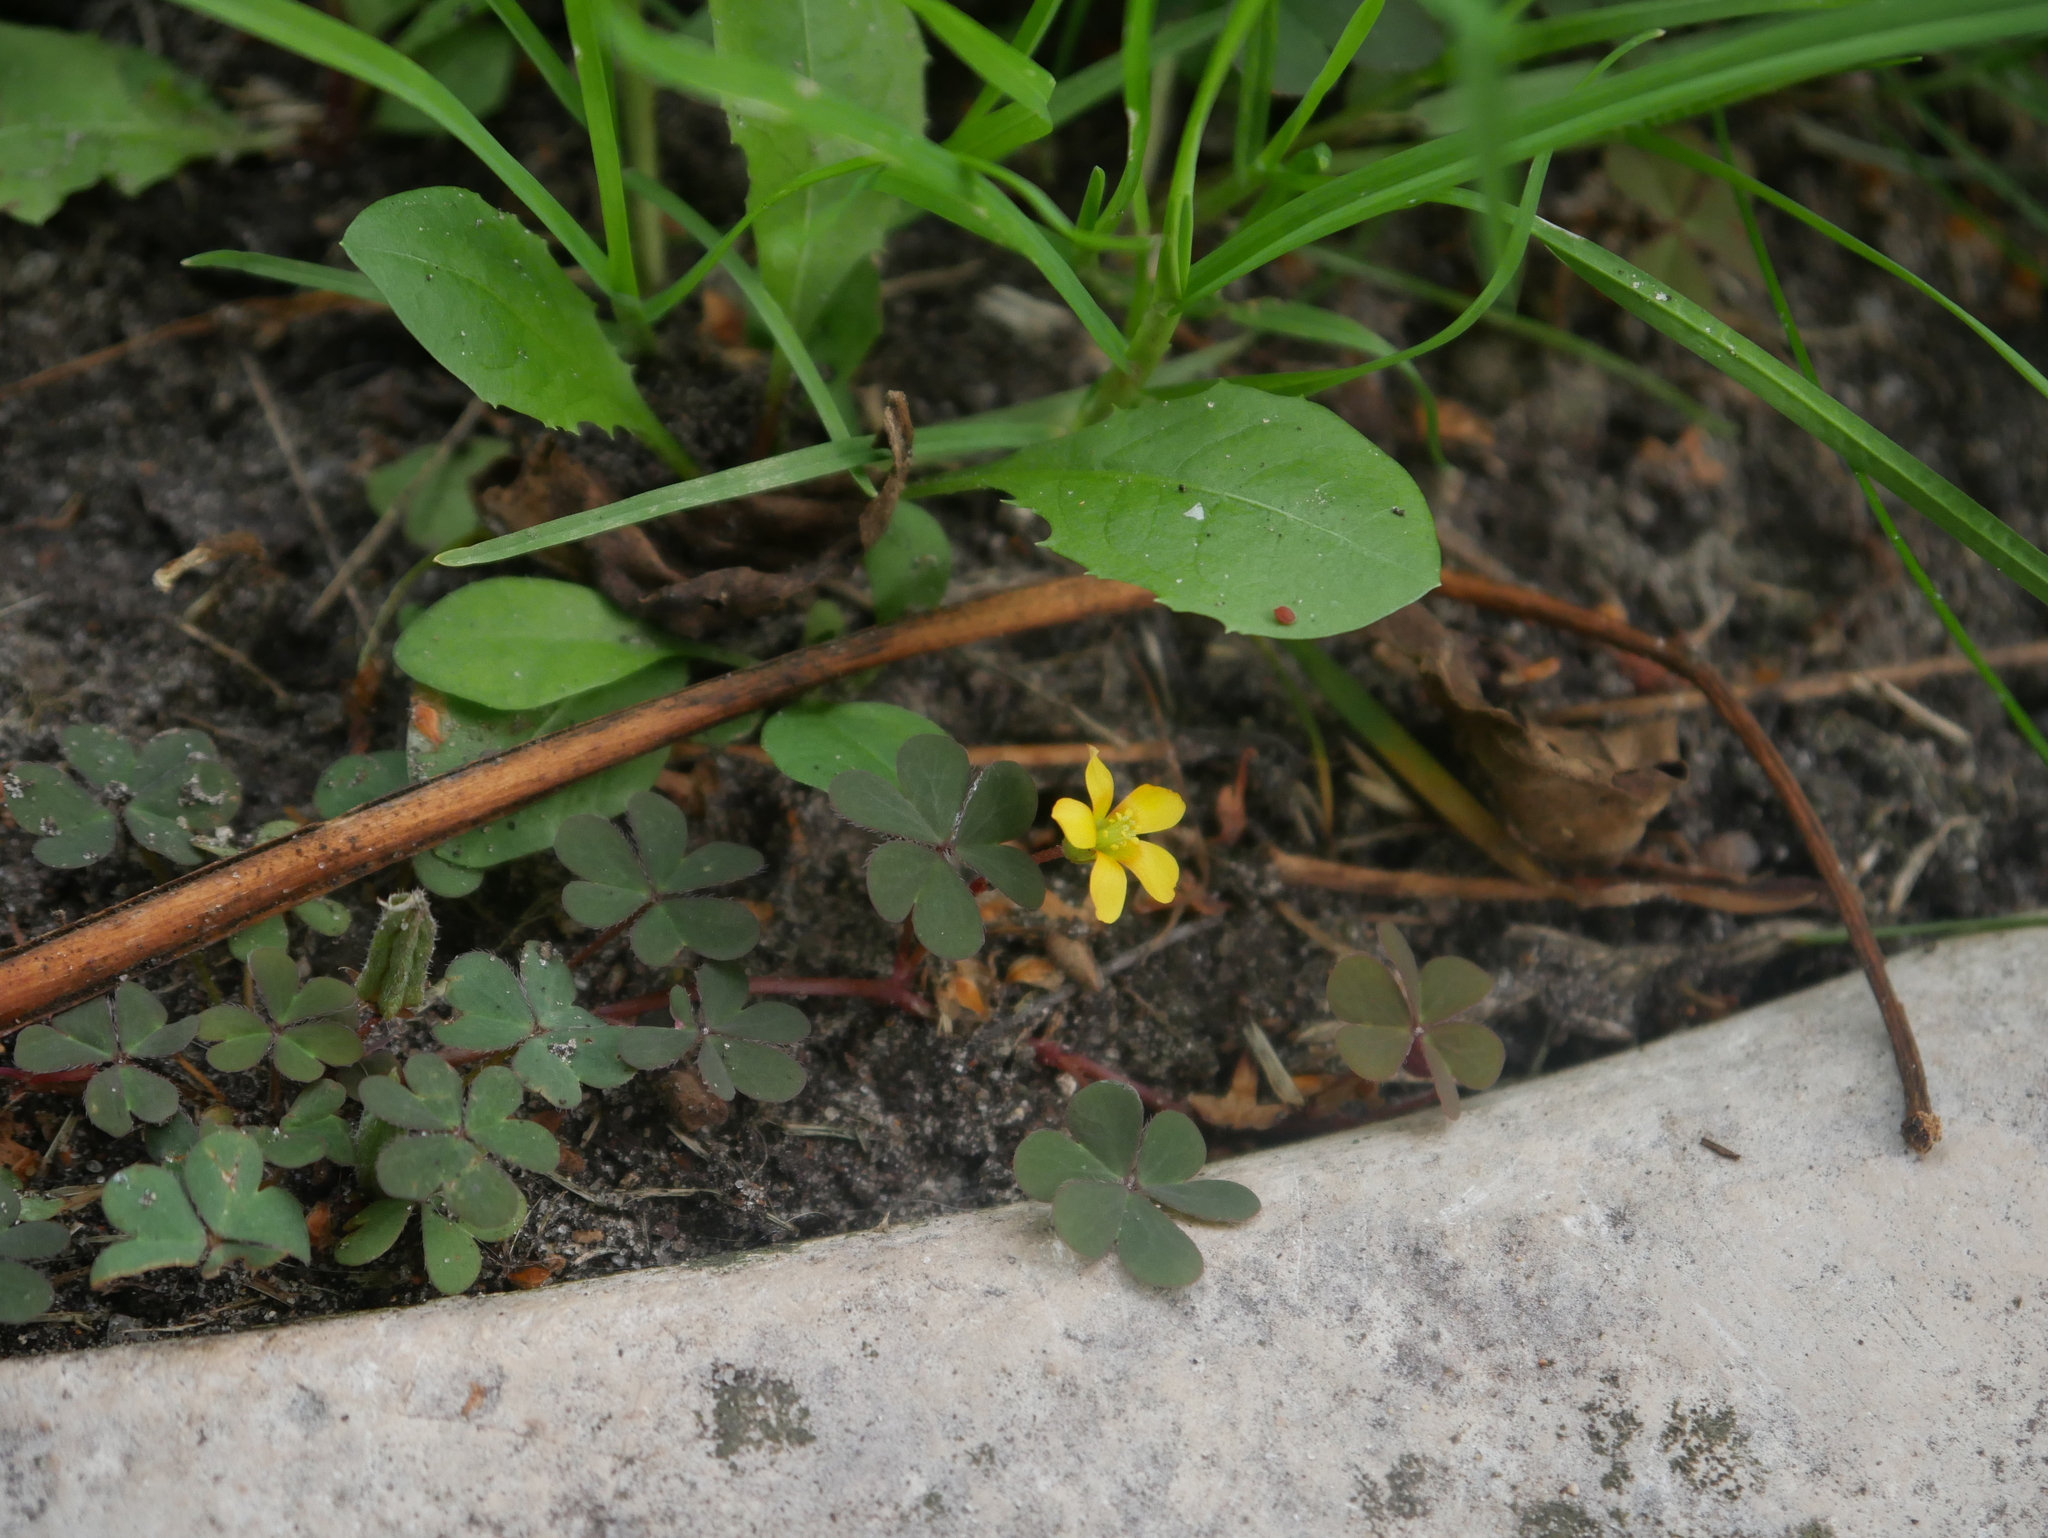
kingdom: Plantae
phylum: Tracheophyta
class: Magnoliopsida
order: Oxalidales
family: Oxalidaceae
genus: Oxalis
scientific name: Oxalis corniculata
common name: Procumbent yellow-sorrel
